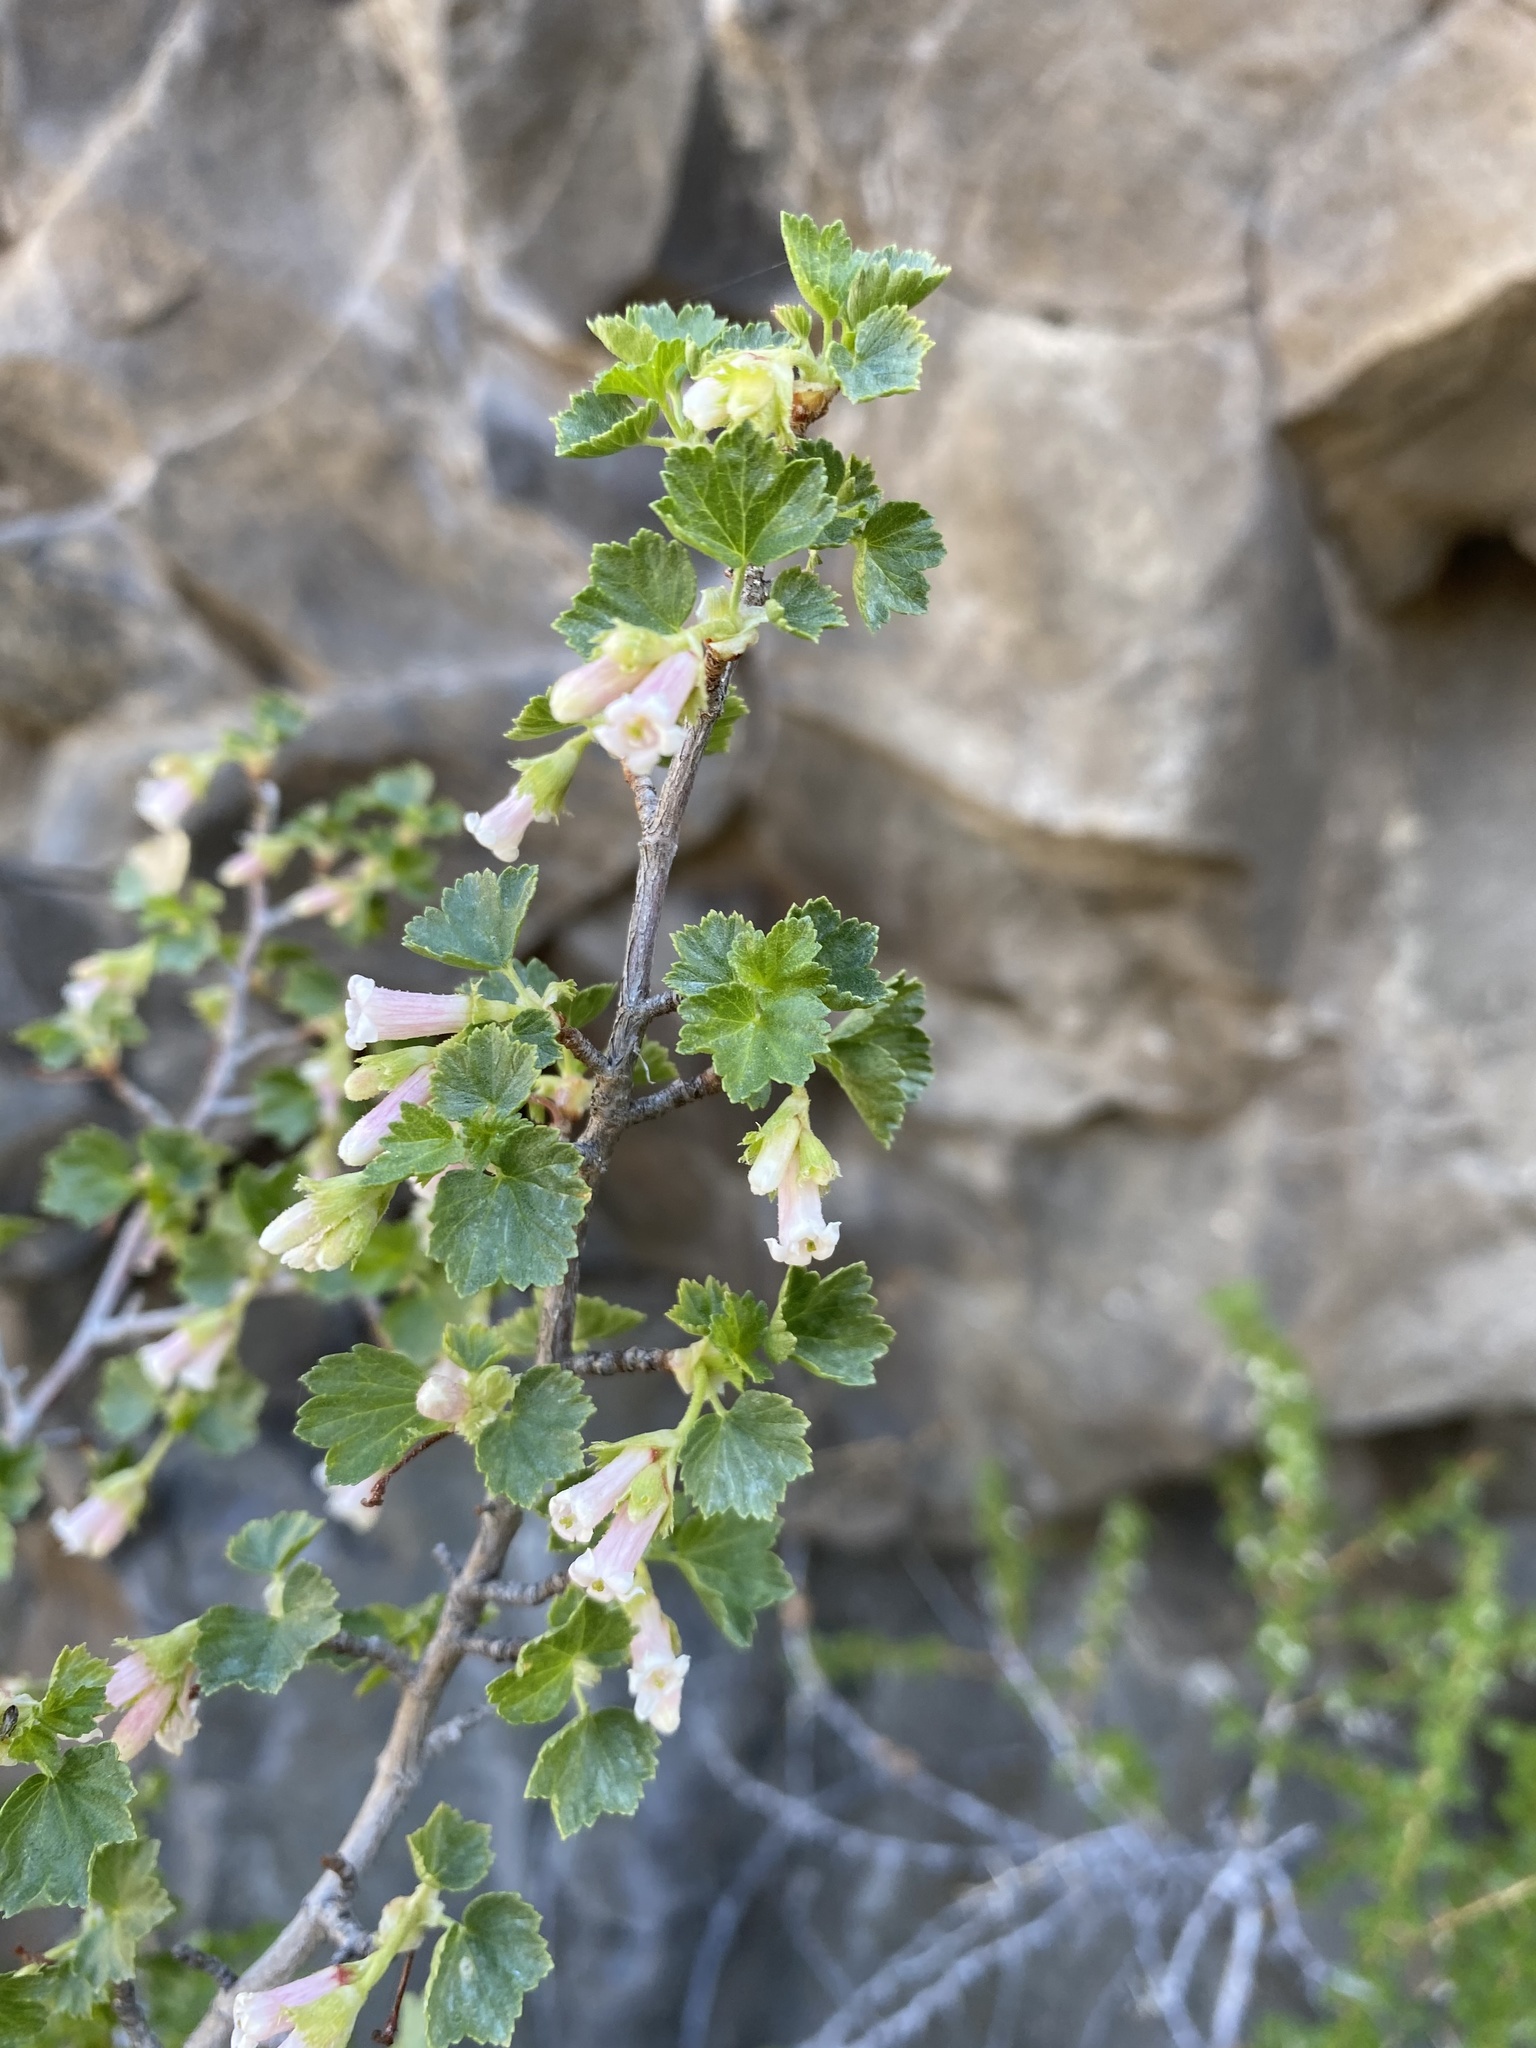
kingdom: Plantae
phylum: Tracheophyta
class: Magnoliopsida
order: Saxifragales
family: Grossulariaceae
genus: Ribes
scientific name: Ribes cereum
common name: Wax currant
